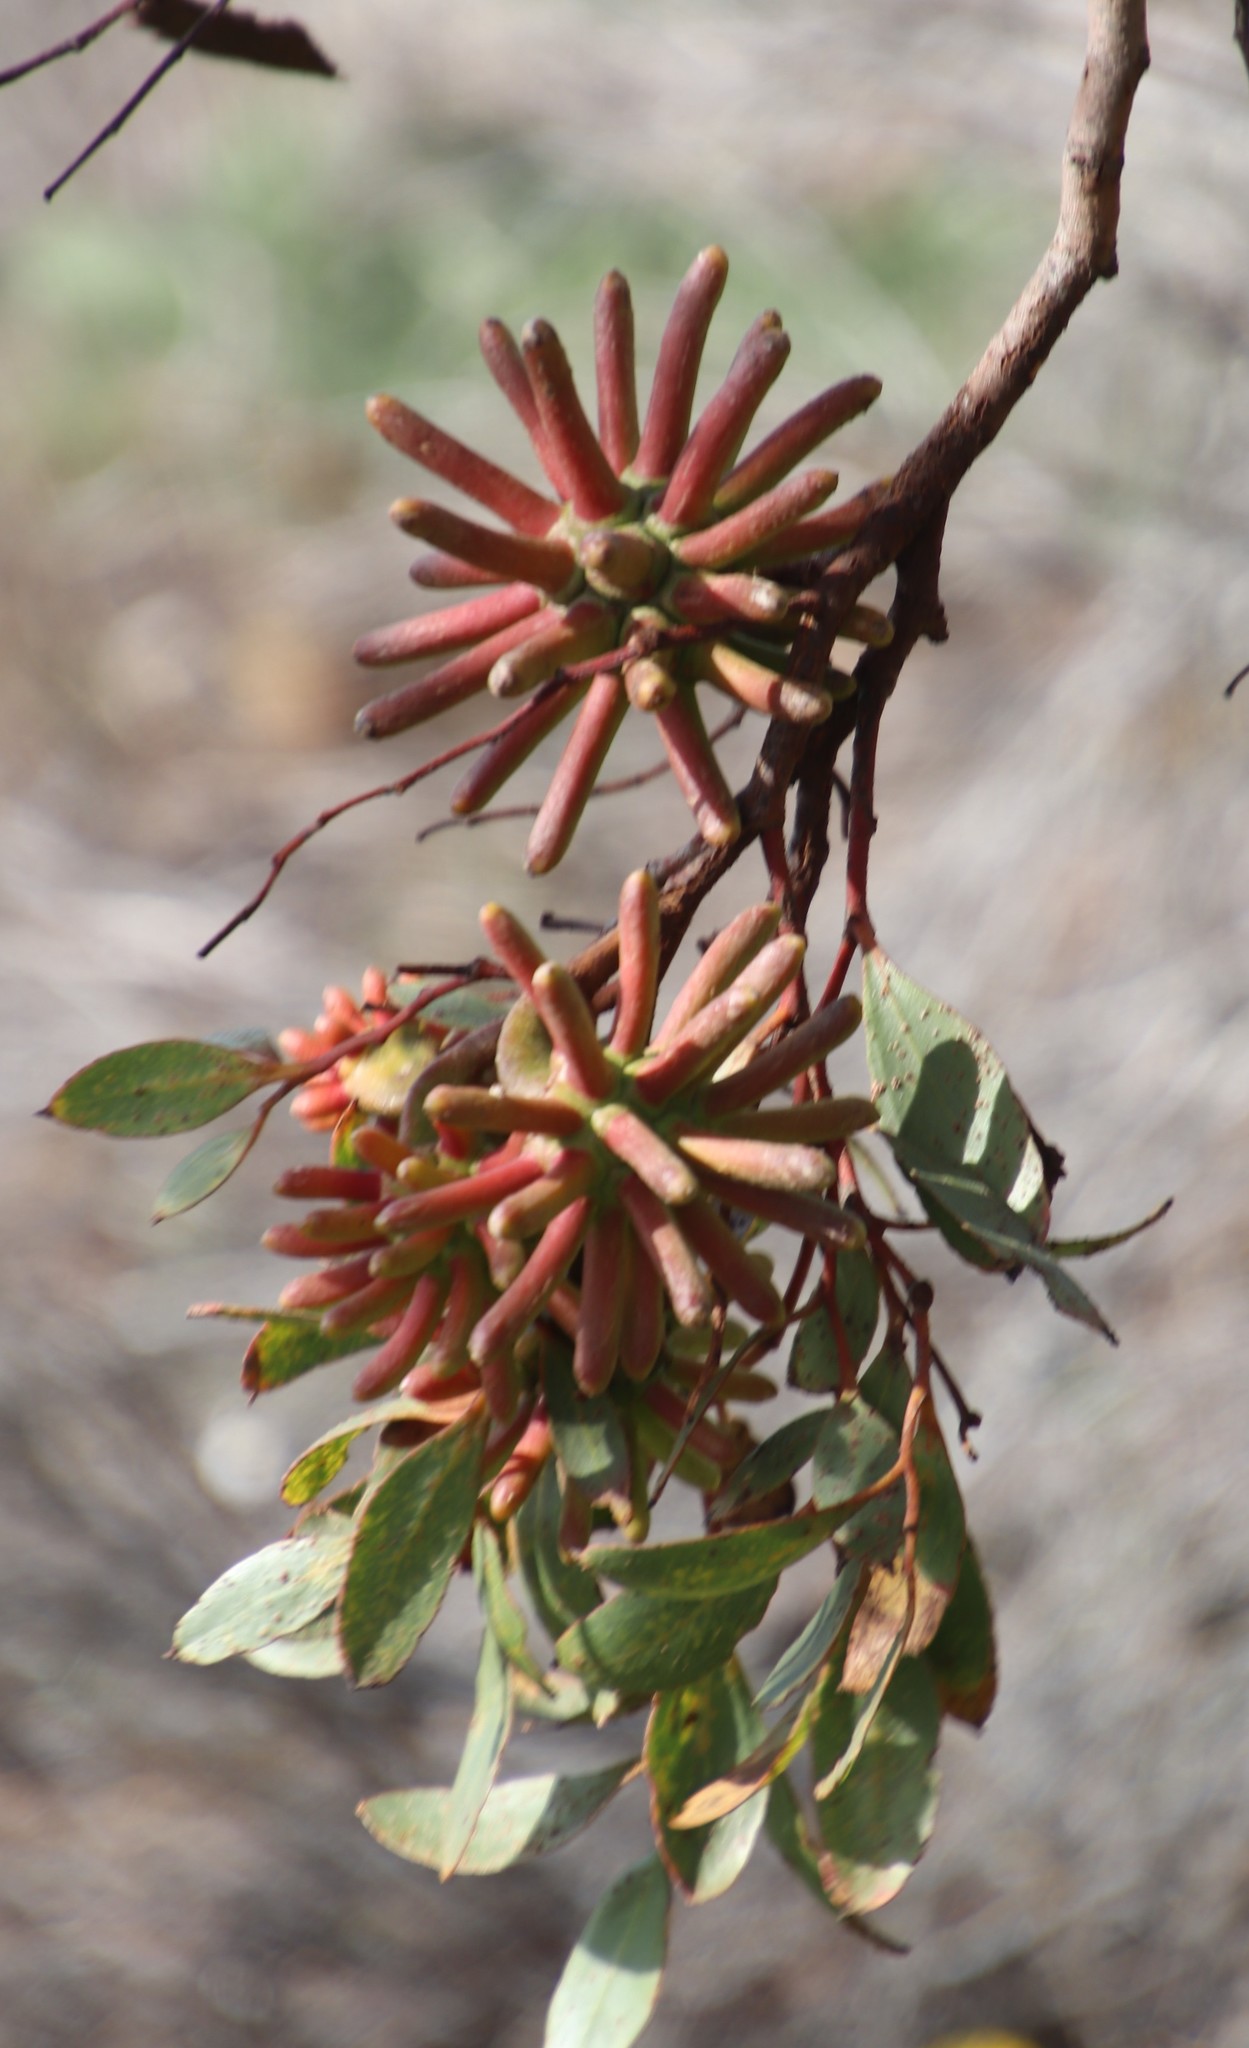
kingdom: Plantae
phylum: Tracheophyta
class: Magnoliopsida
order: Myrtales
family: Myrtaceae
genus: Eucalyptus
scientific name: Eucalyptus conferruminata
